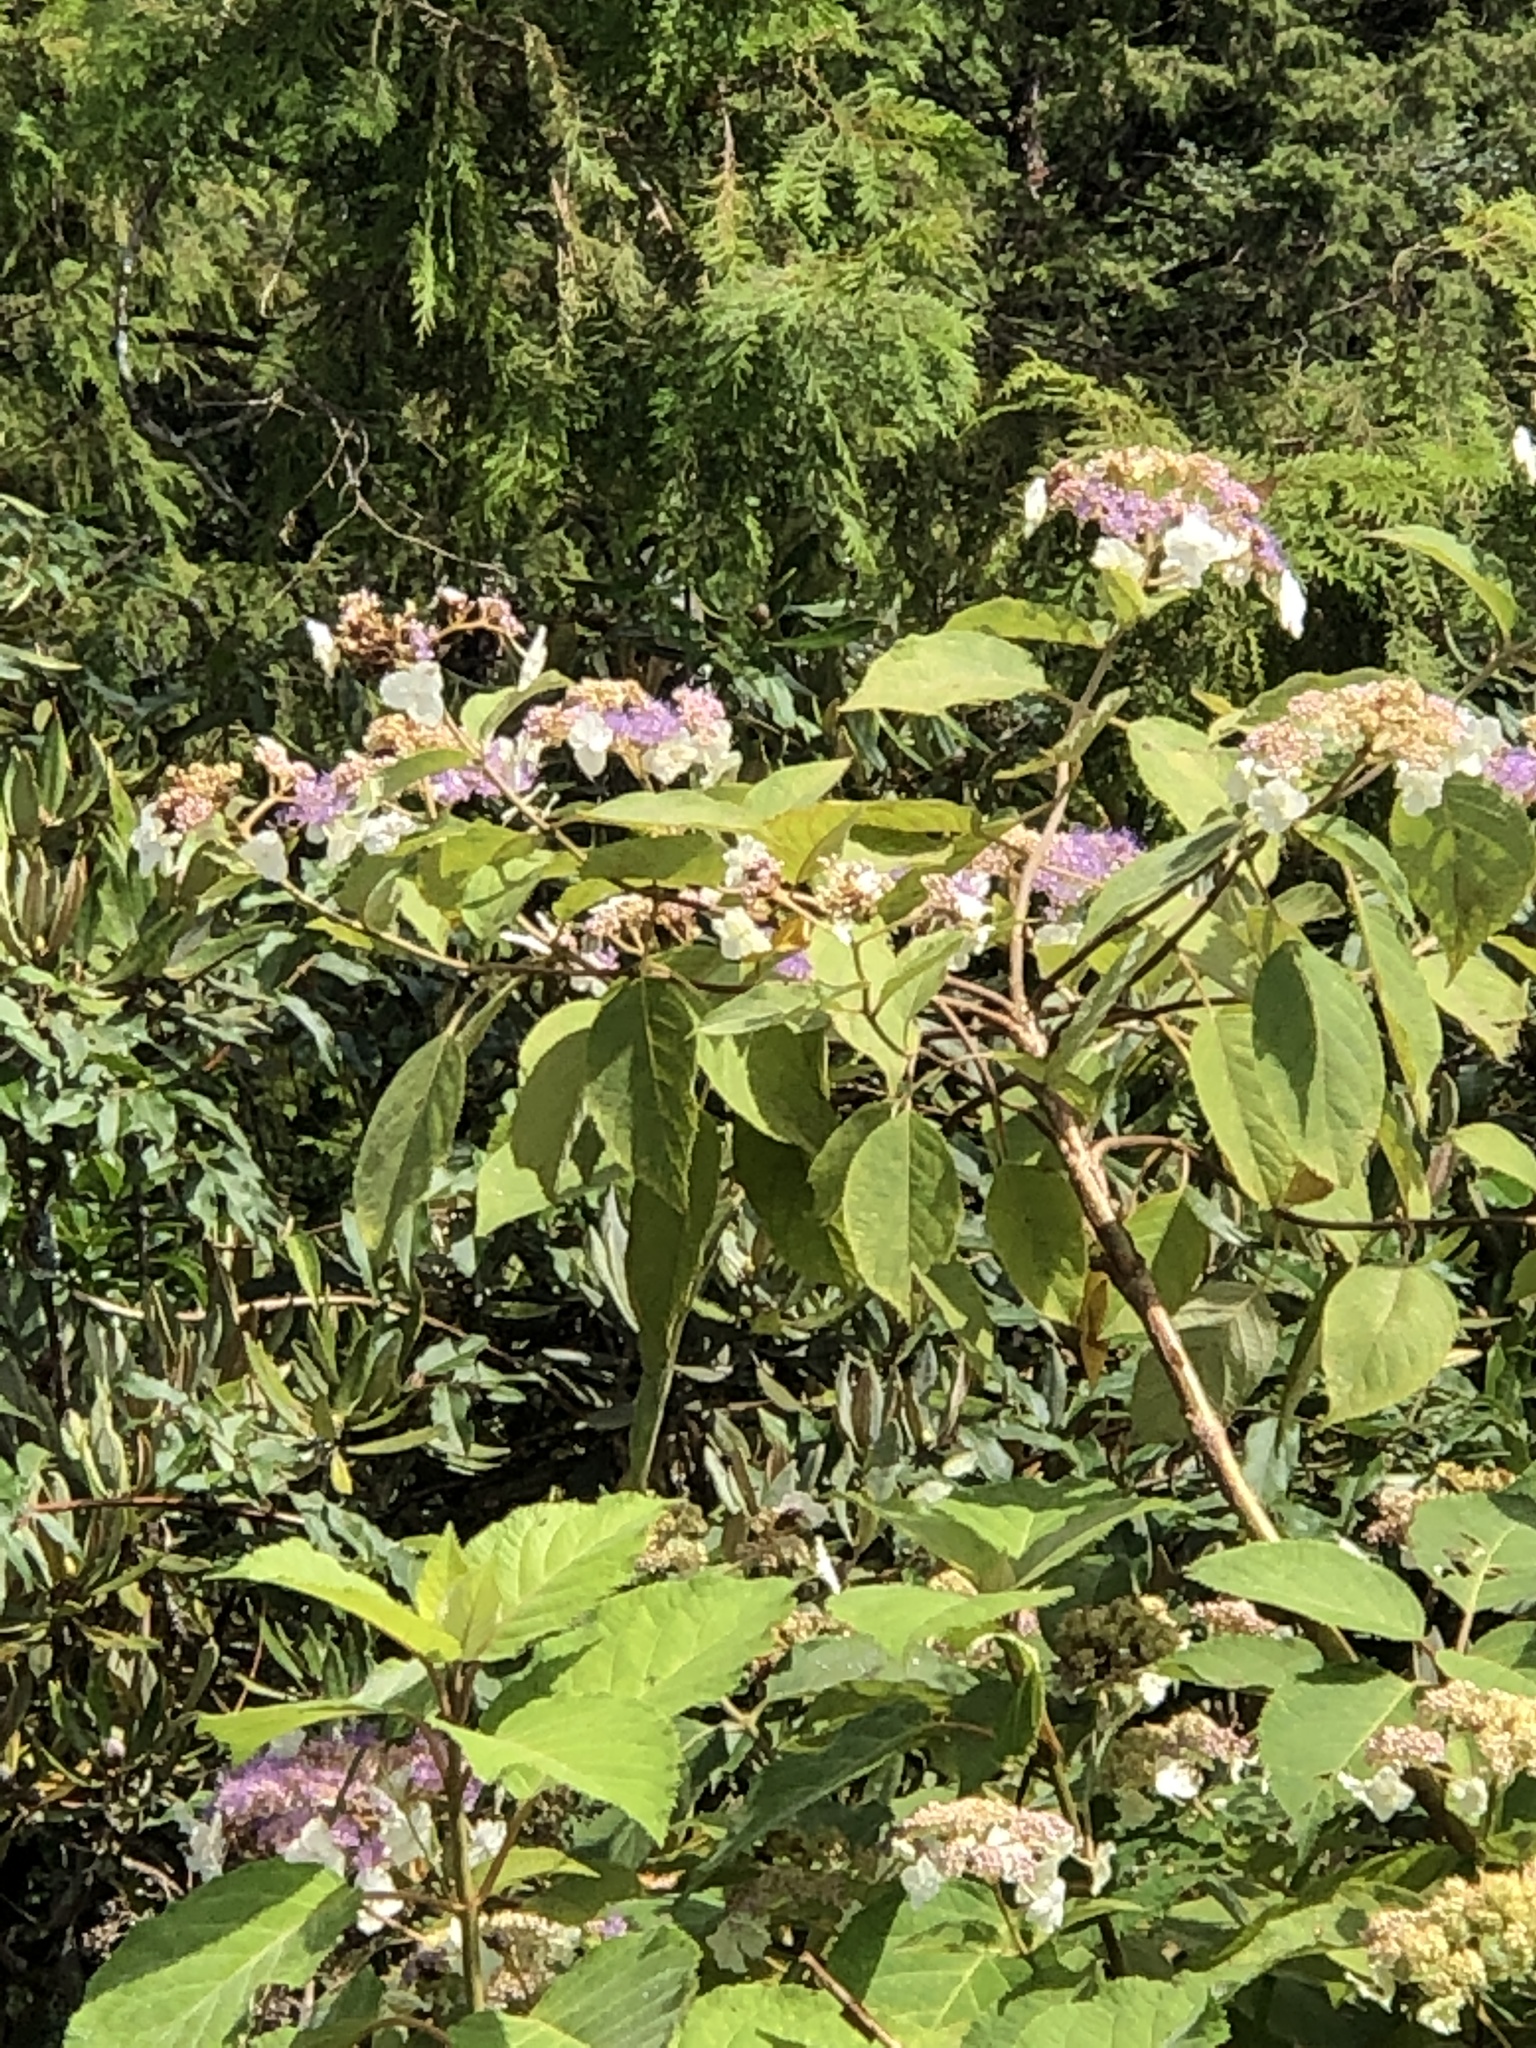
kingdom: Plantae
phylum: Tracheophyta
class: Magnoliopsida
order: Cornales
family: Hydrangeaceae
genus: Hydrangea
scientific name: Hydrangea aspera
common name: Rough-leaf hydrangea
